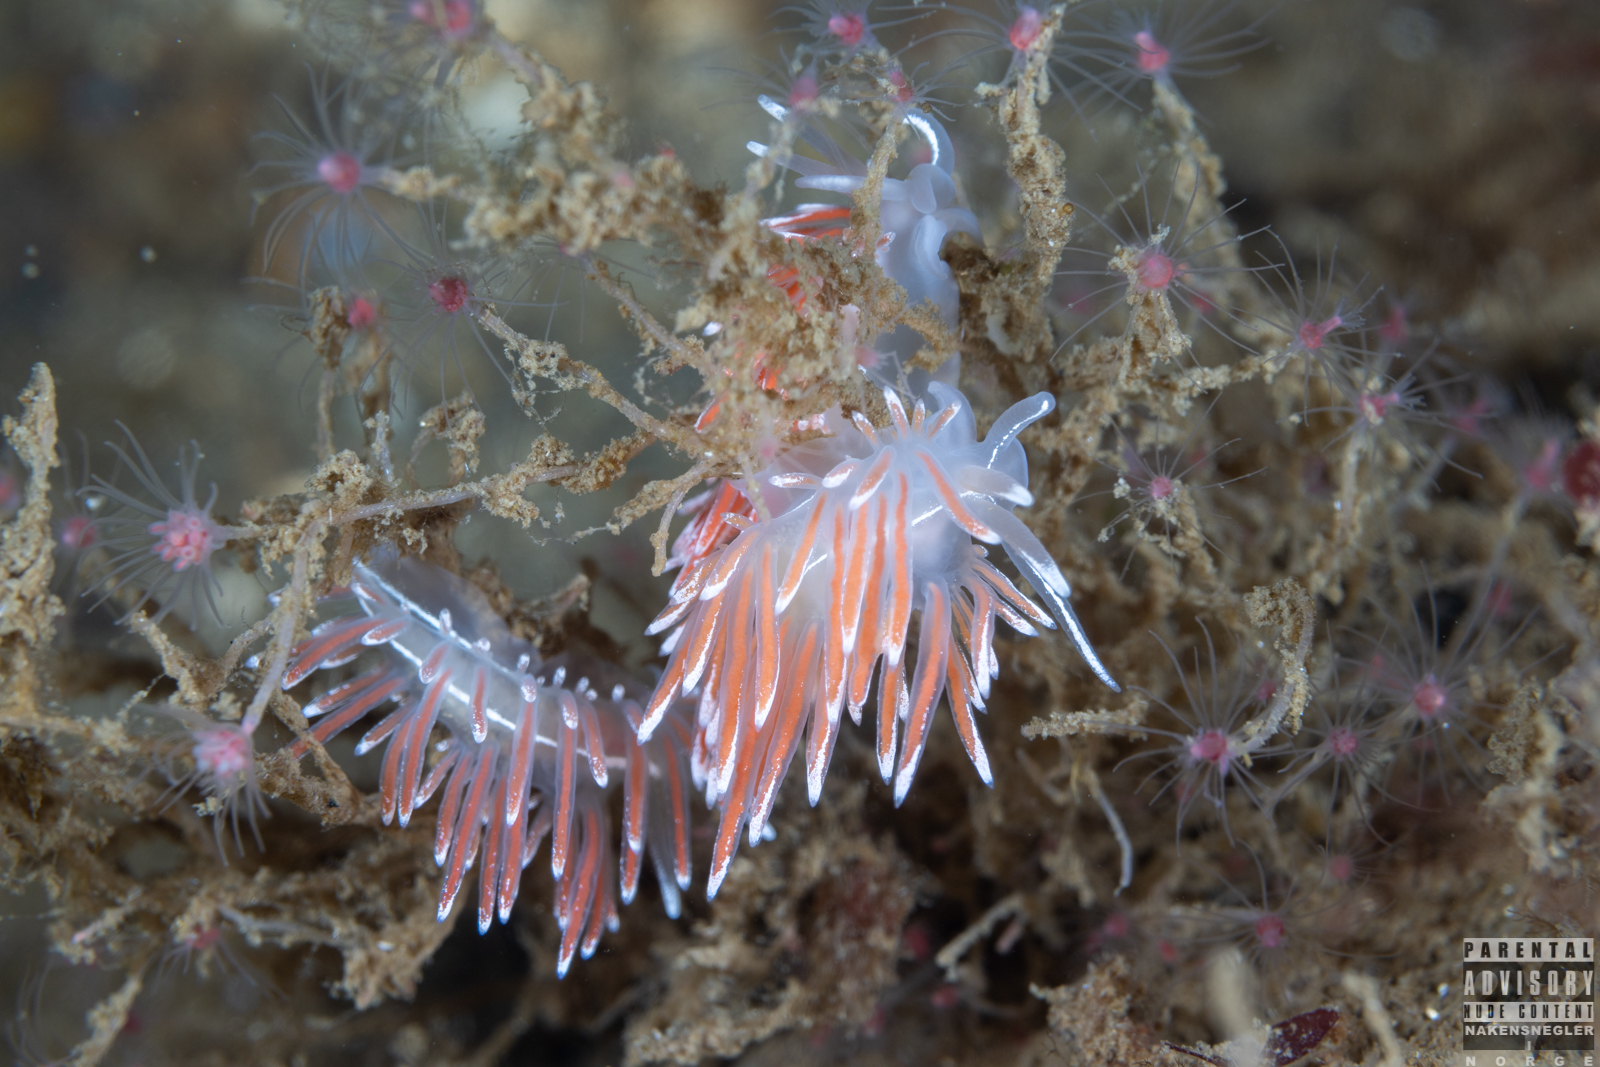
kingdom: Animalia
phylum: Mollusca
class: Gastropoda
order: Nudibranchia
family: Coryphellidae
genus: Coryphella
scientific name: Coryphella lineata
